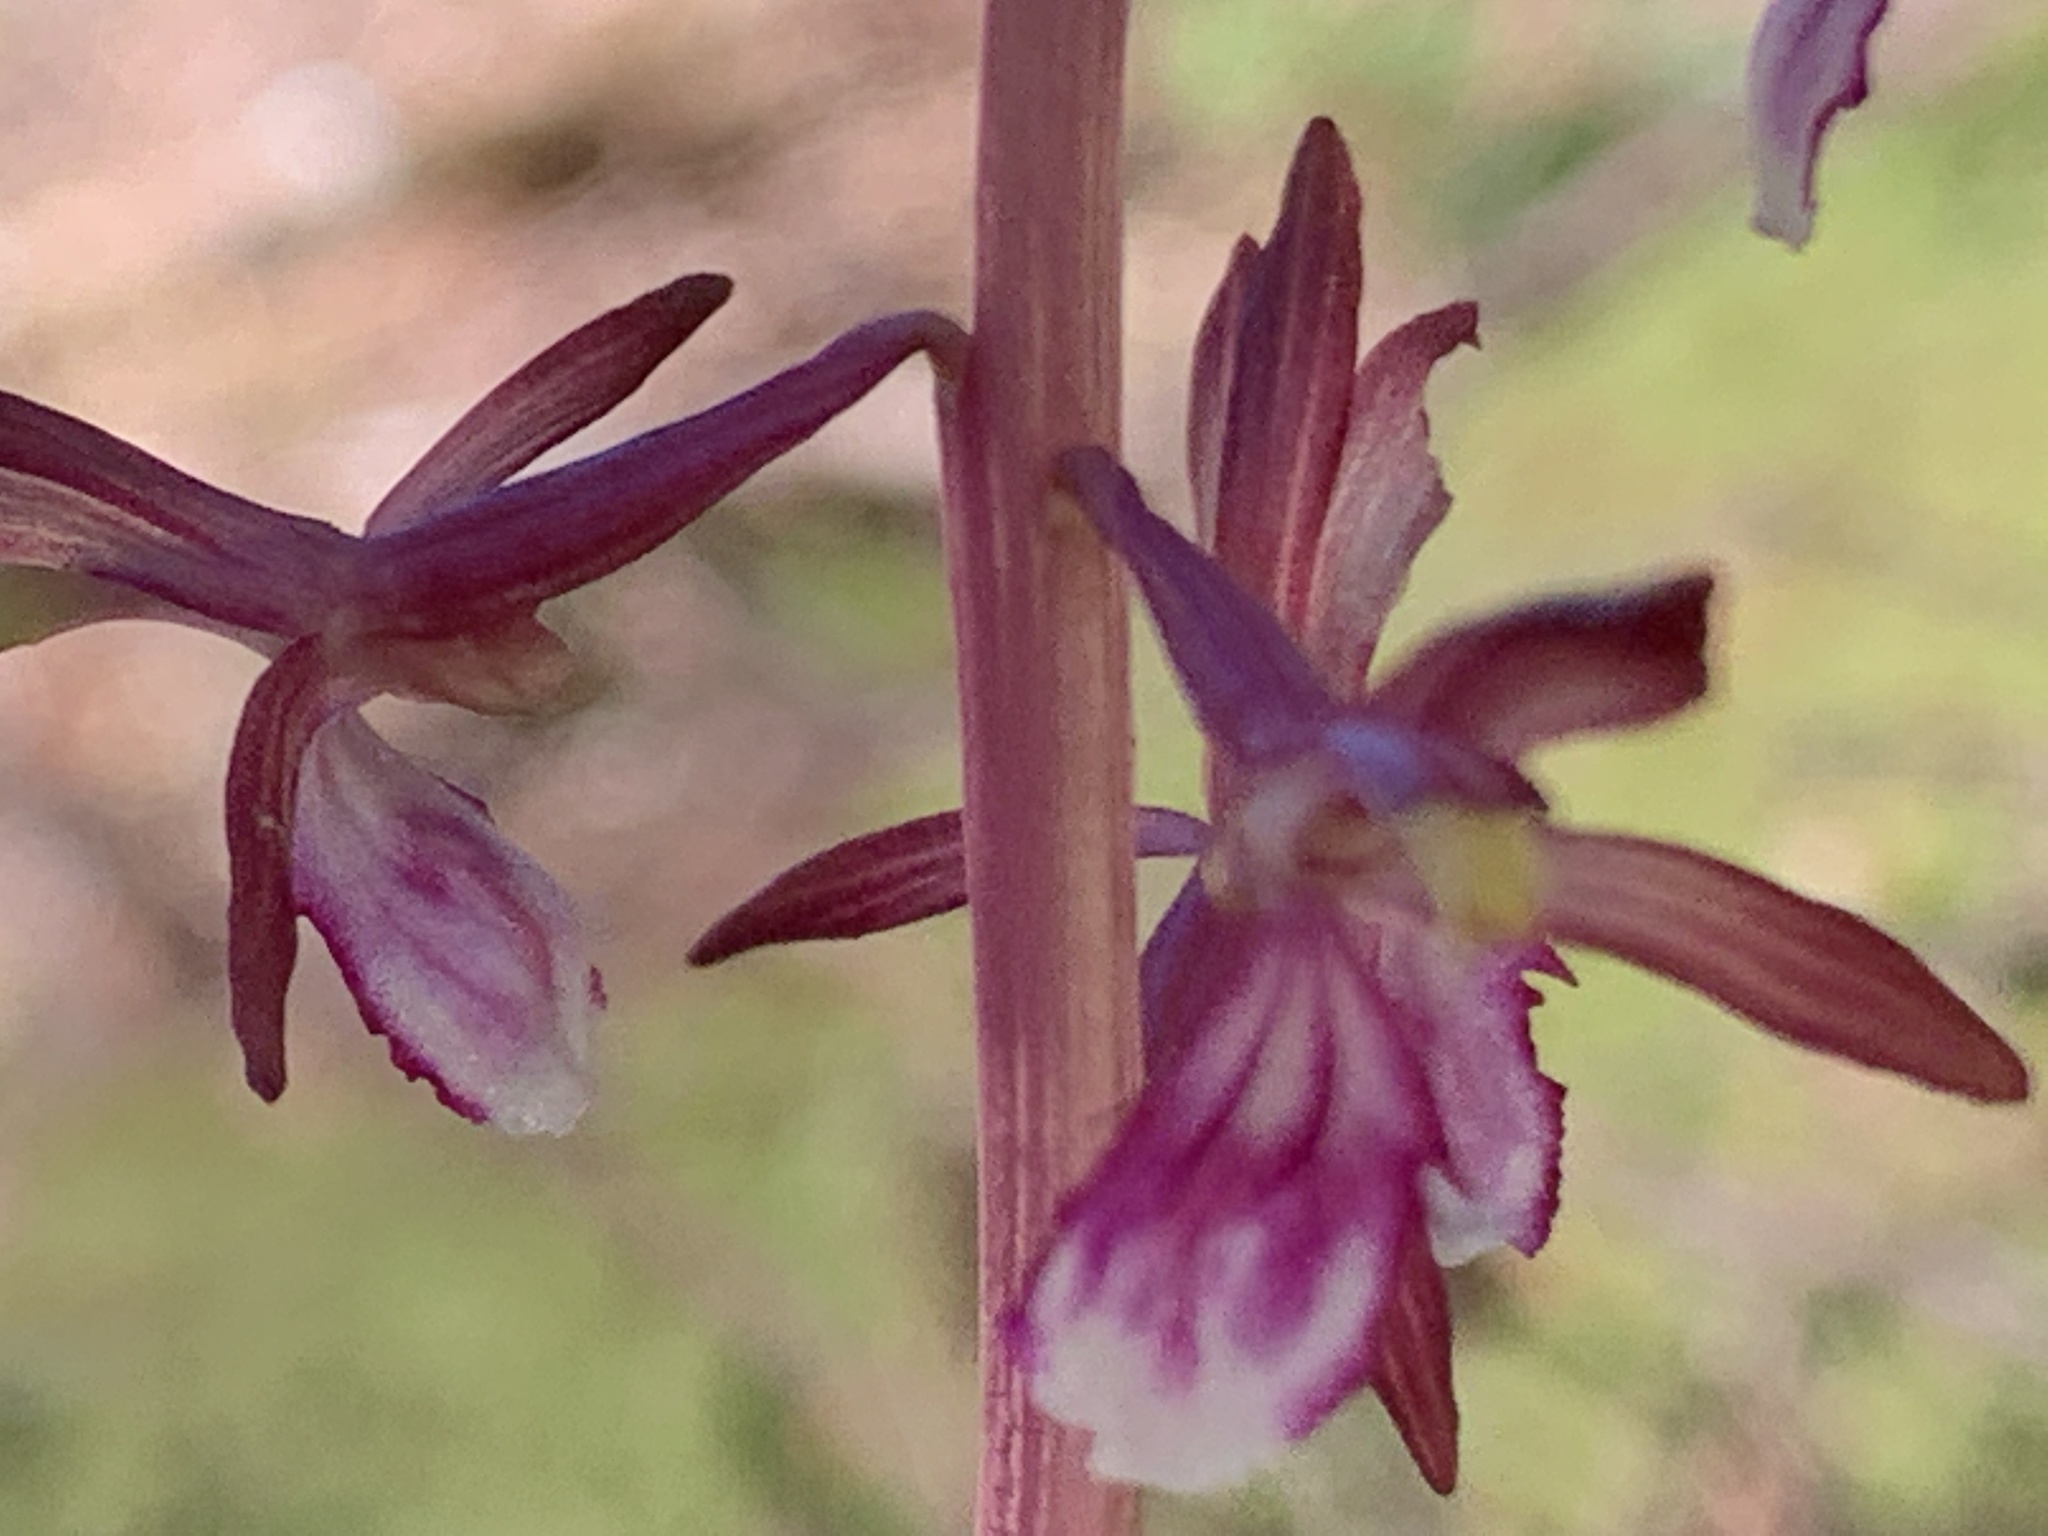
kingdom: Plantae
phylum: Tracheophyta
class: Liliopsida
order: Asparagales
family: Orchidaceae
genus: Corallorhiza
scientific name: Corallorhiza mertensiana
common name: Pacific coralroot
